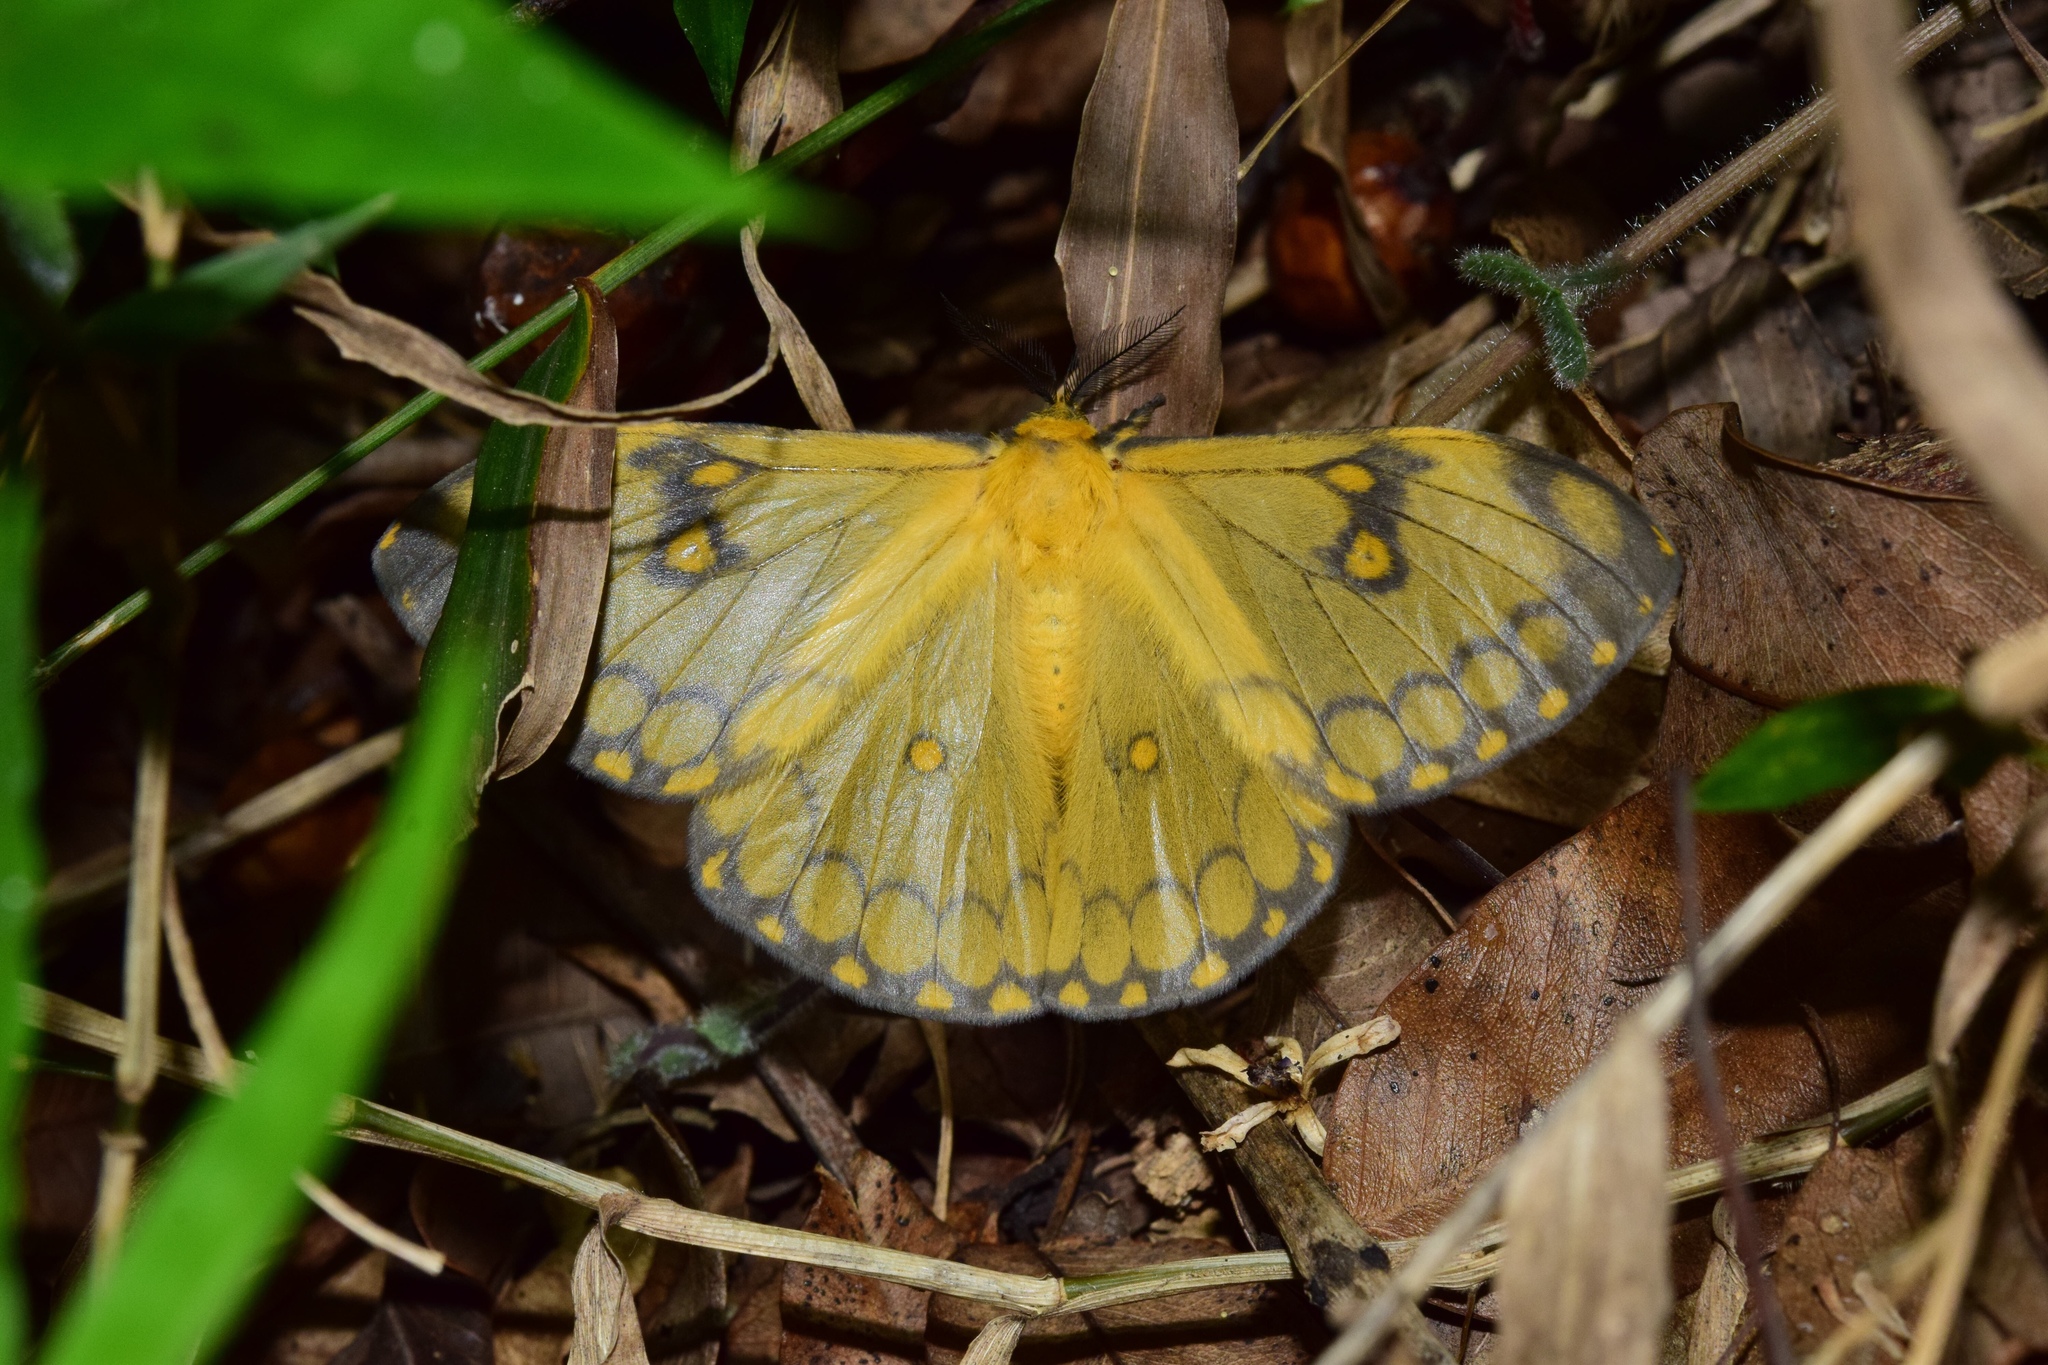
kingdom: Animalia
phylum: Arthropoda
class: Insecta
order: Lepidoptera
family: Saturniidae
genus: Pseudaphelia
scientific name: Pseudaphelia apollinaris
